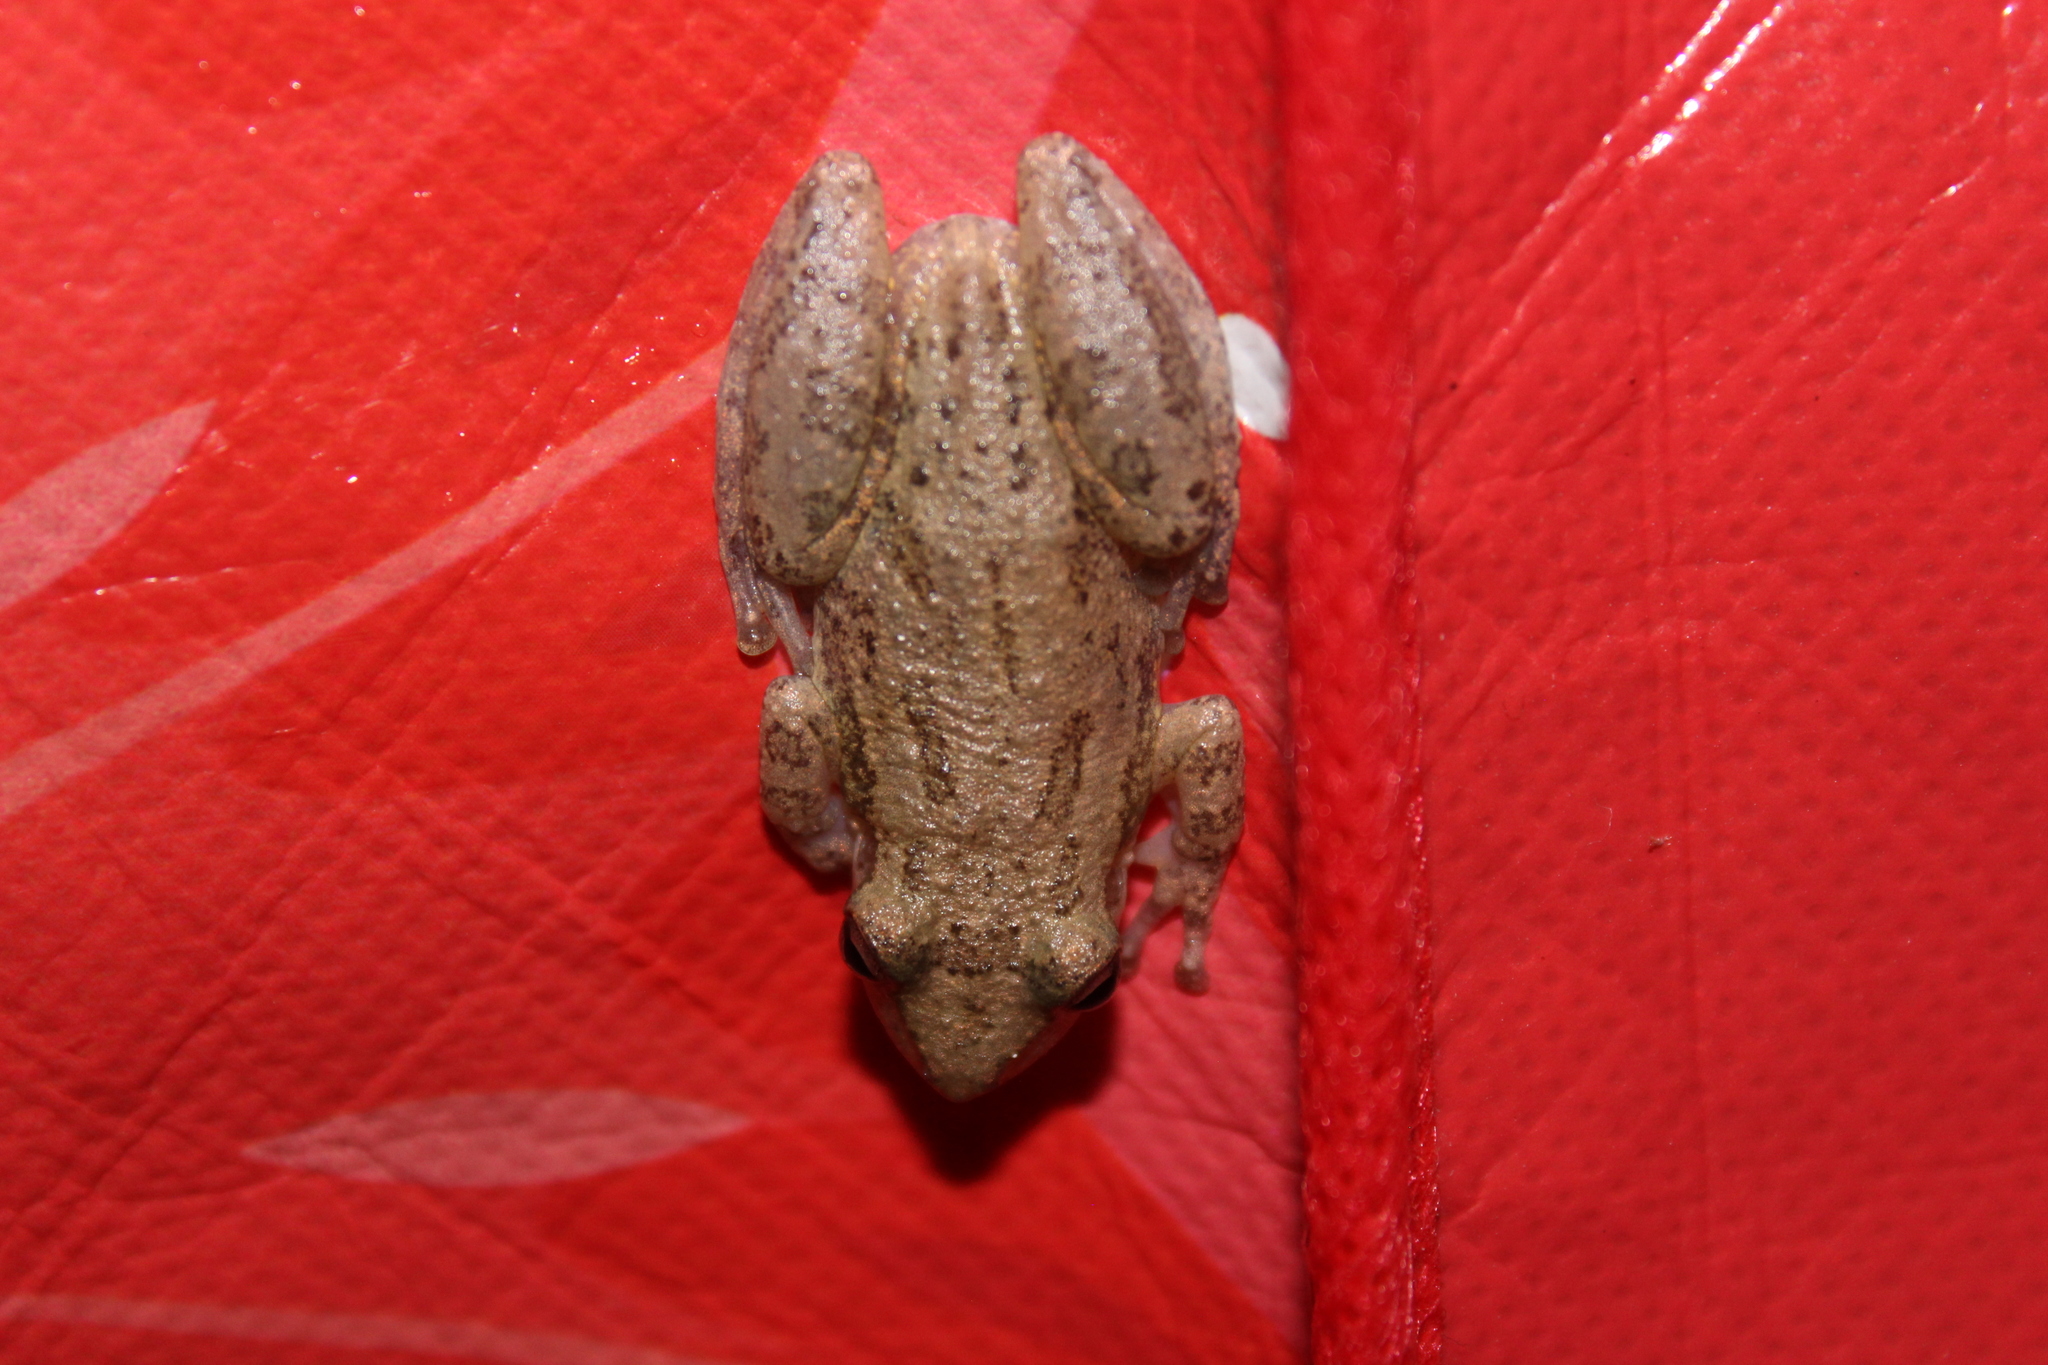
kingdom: Animalia
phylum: Chordata
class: Amphibia
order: Anura
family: Hylidae
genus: Scinax
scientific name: Scinax staufferi
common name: Stauffer's long-nosed treefrog
